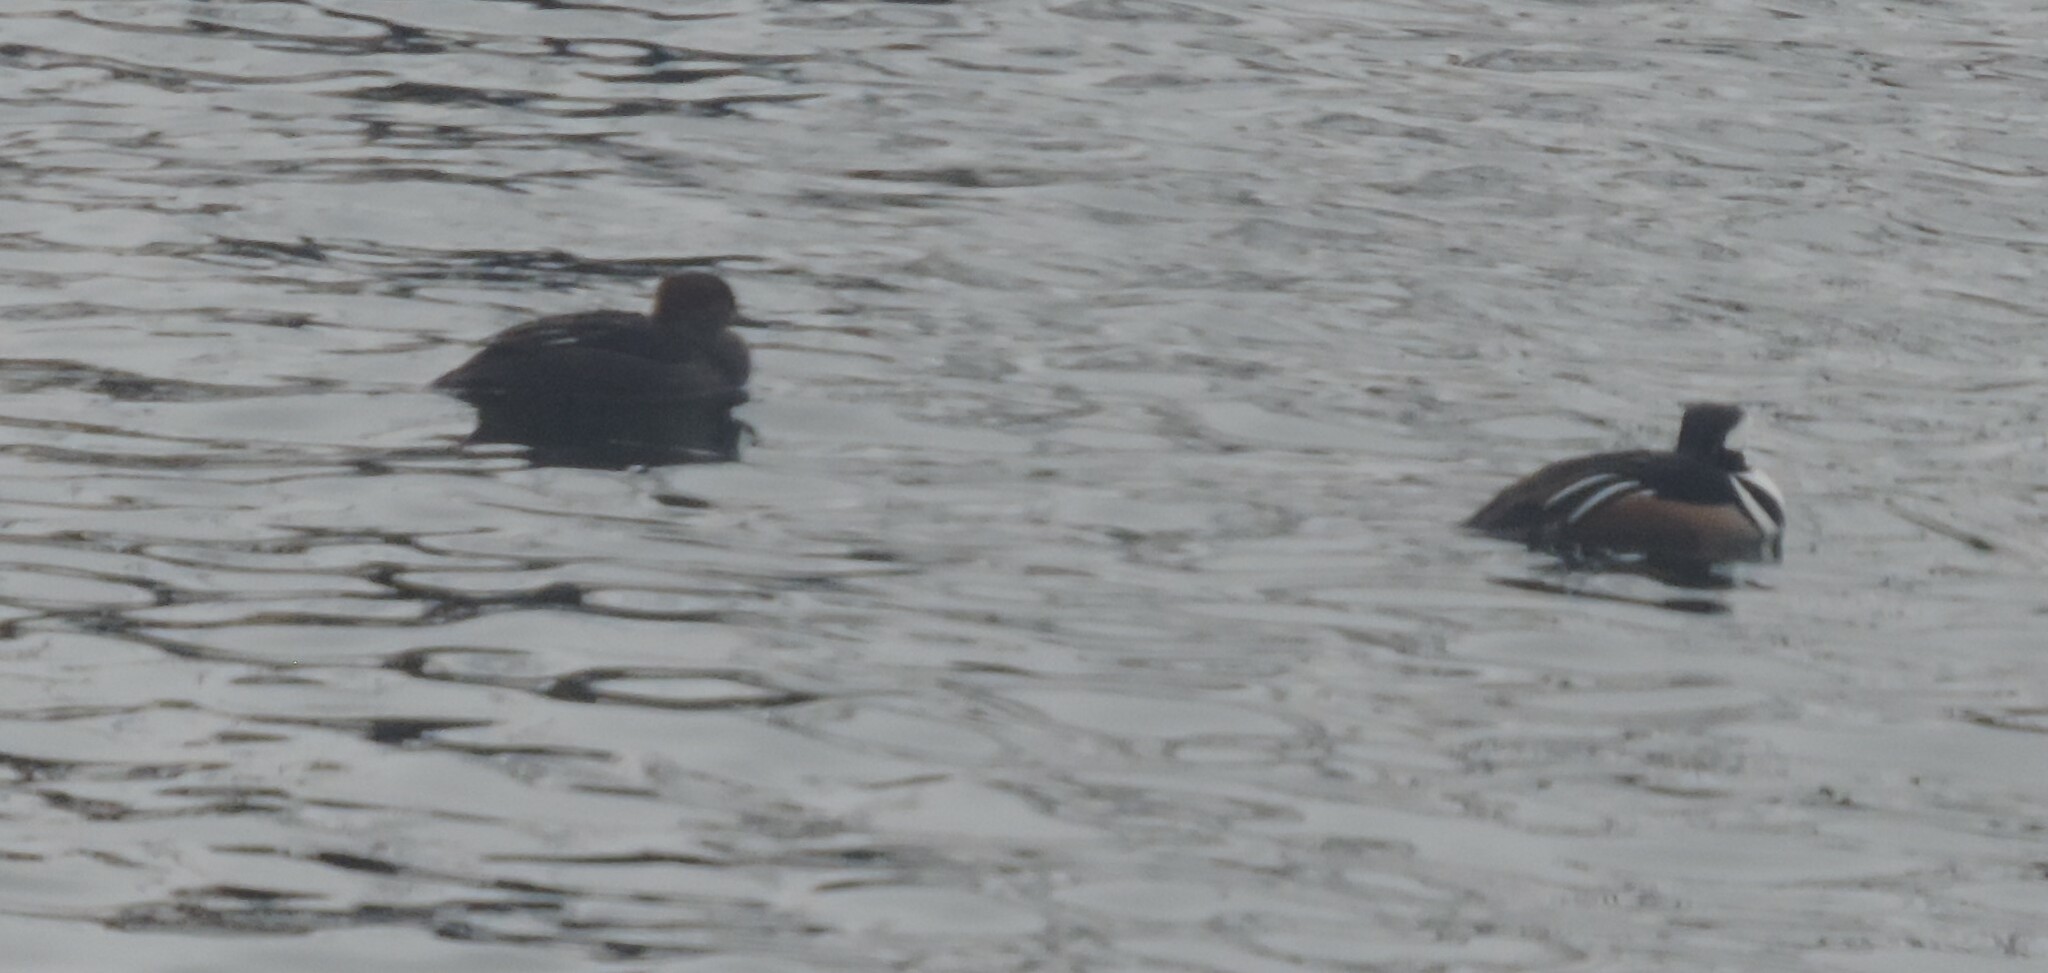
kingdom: Animalia
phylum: Chordata
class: Aves
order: Anseriformes
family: Anatidae
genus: Lophodytes
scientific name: Lophodytes cucullatus
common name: Hooded merganser
